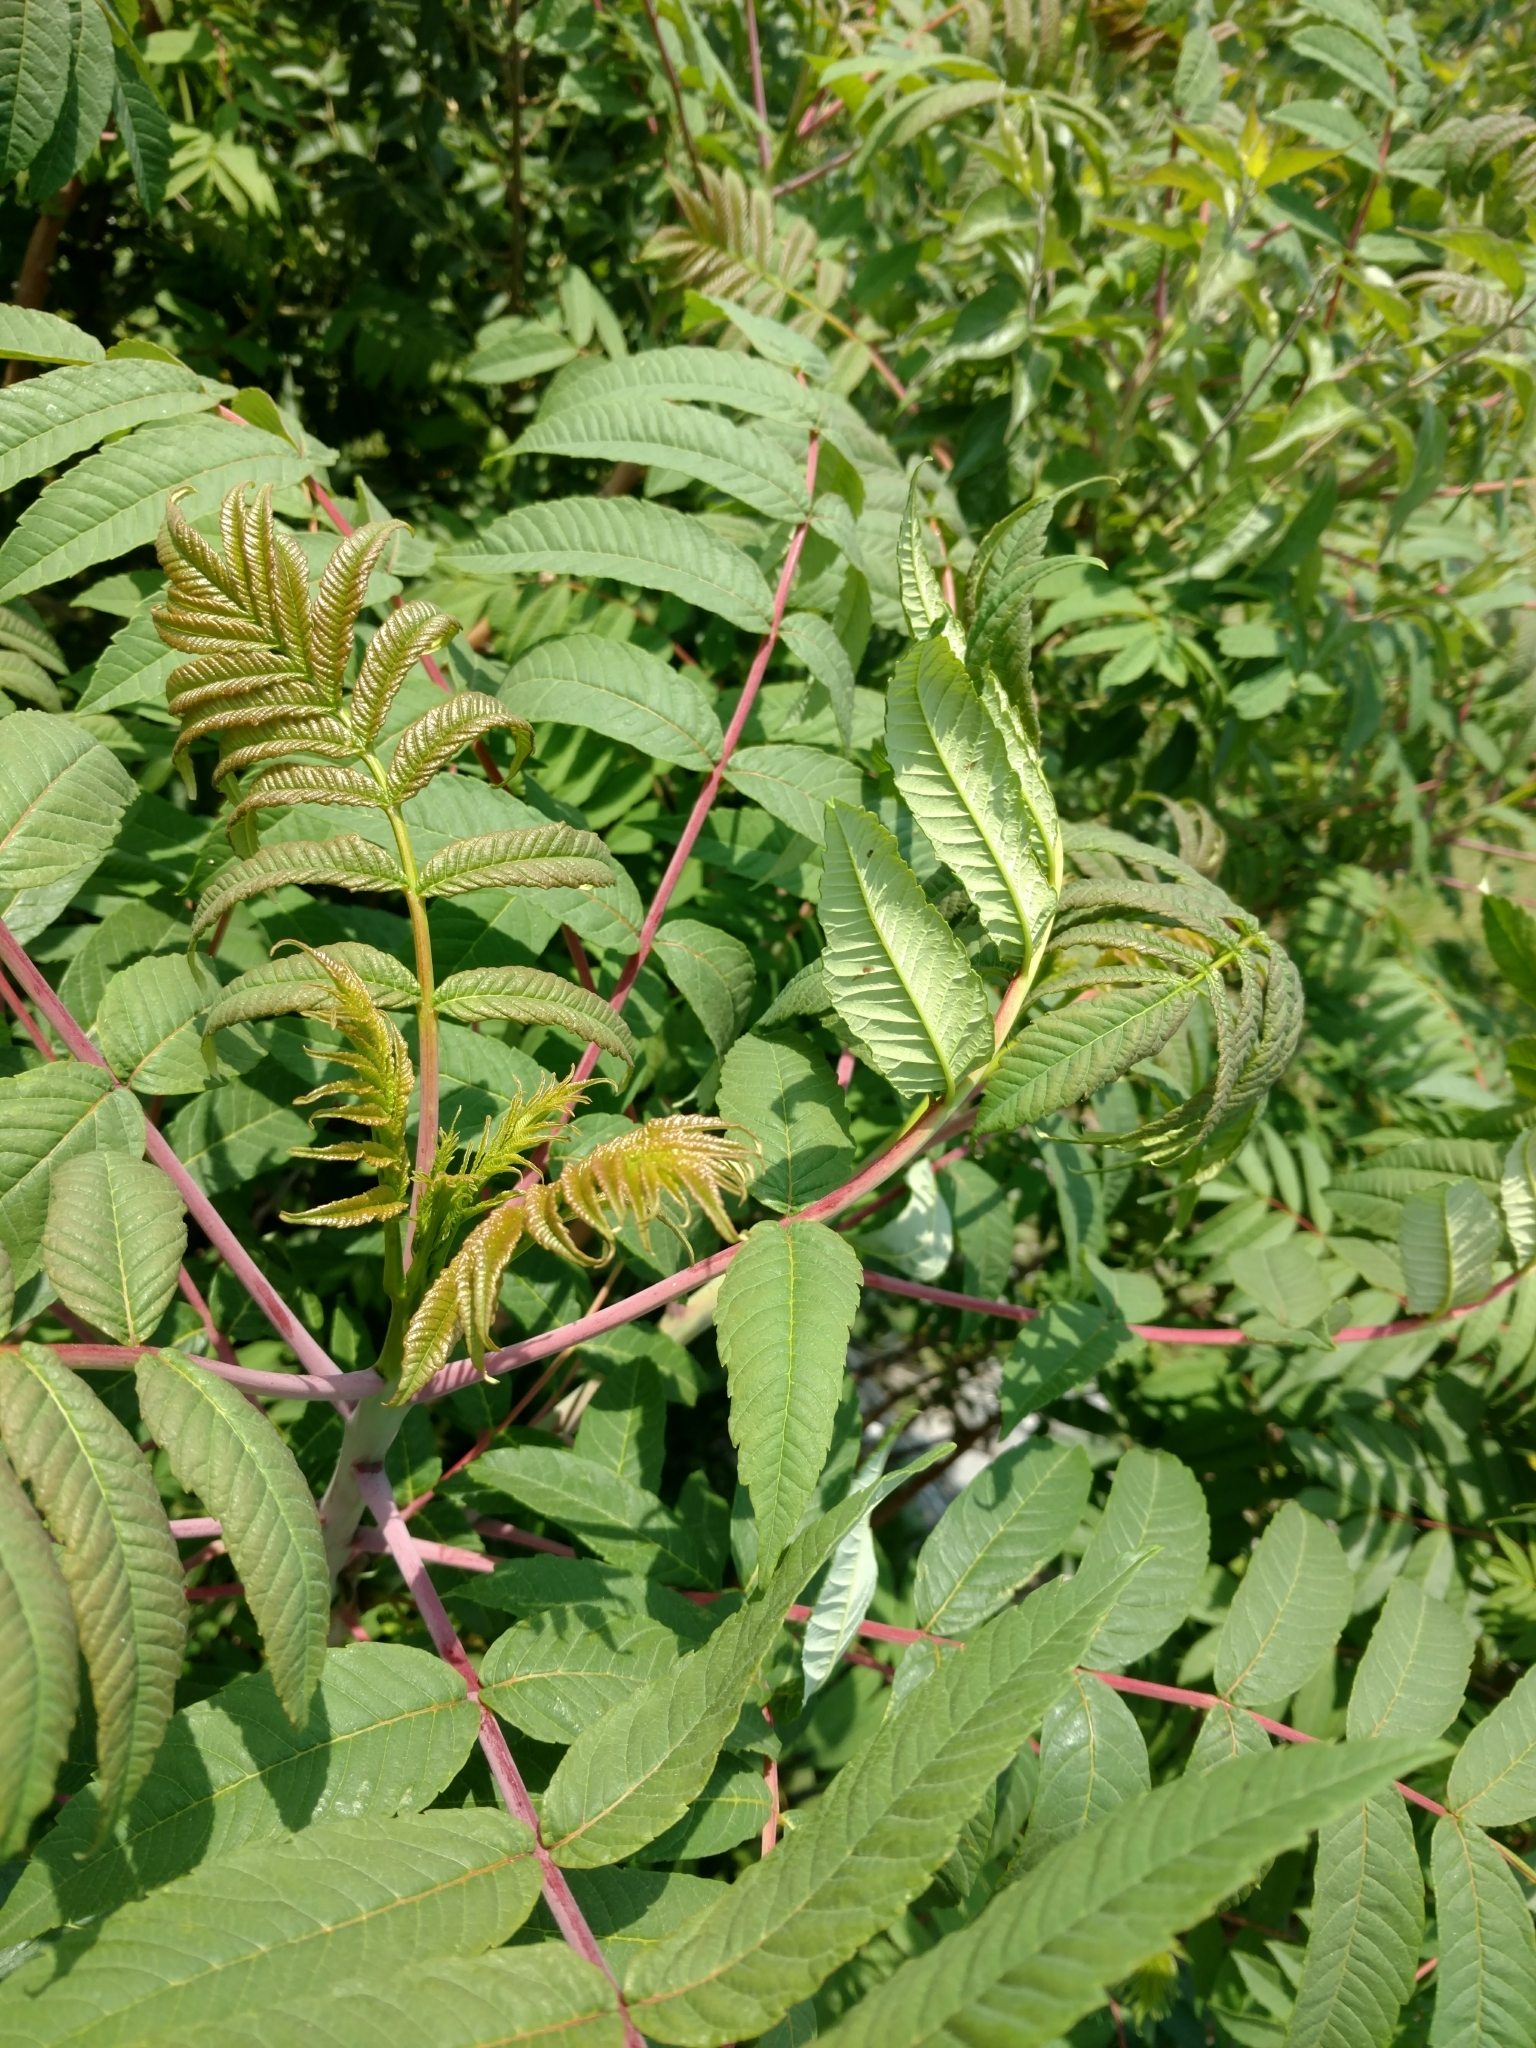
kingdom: Plantae
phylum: Tracheophyta
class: Magnoliopsida
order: Sapindales
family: Anacardiaceae
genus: Rhus
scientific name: Rhus glabra
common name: Scarlet sumac
